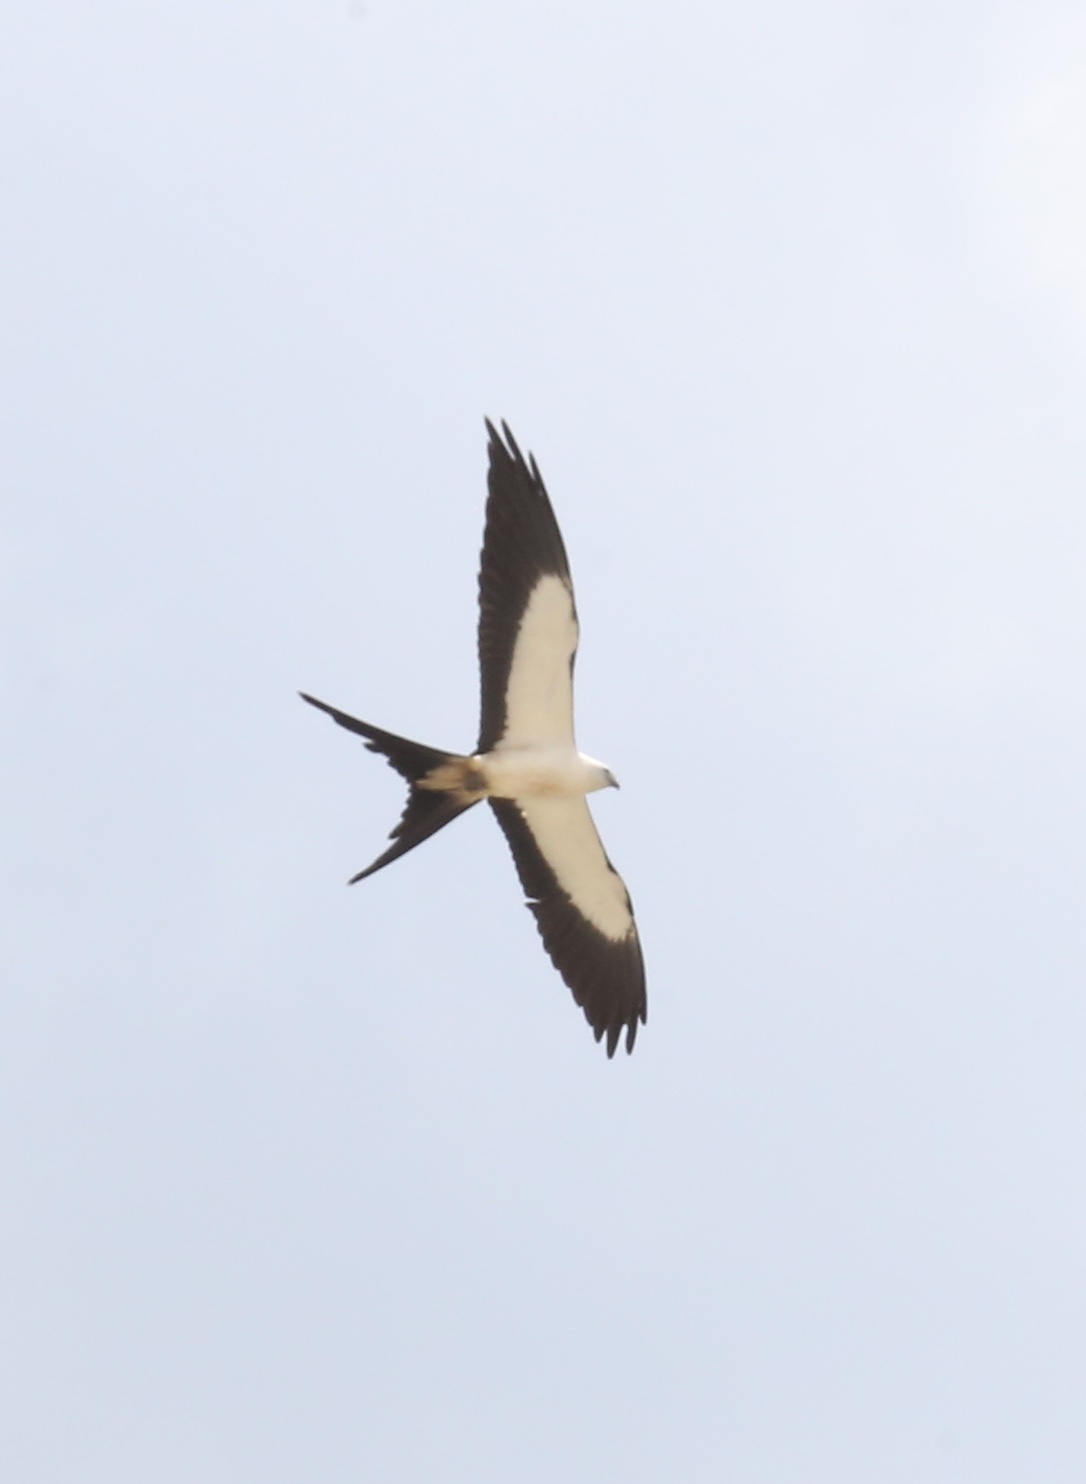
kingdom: Animalia
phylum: Chordata
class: Aves
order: Accipitriformes
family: Accipitridae
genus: Elanoides
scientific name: Elanoides forficatus
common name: Swallow-tailed kite
